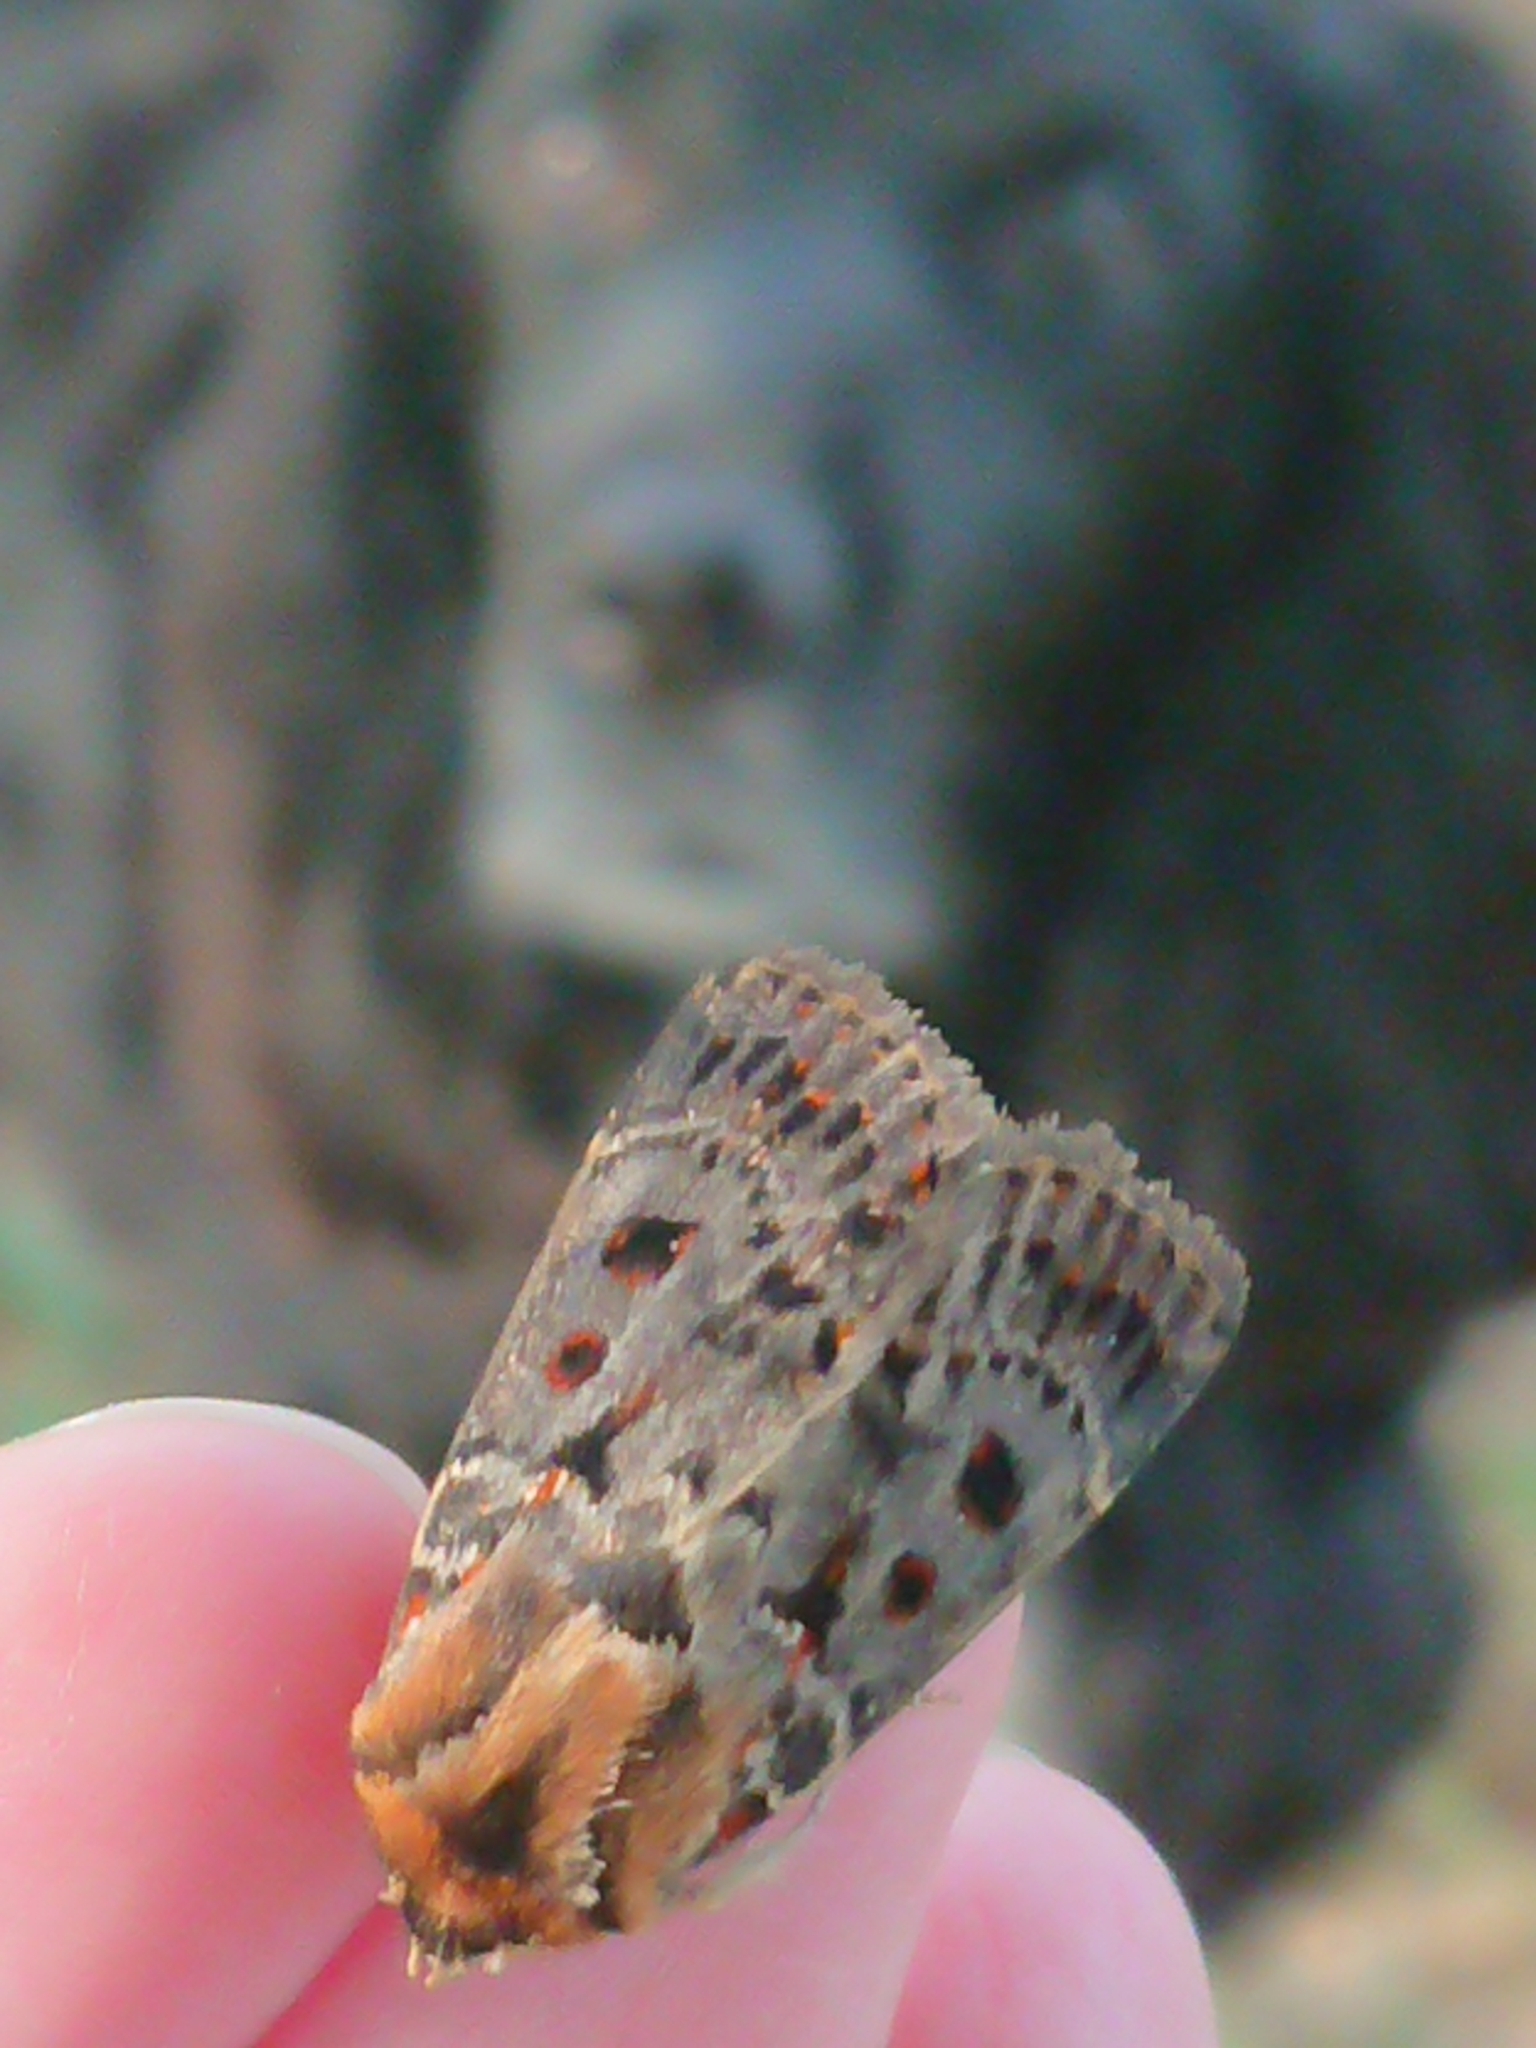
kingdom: Animalia
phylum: Arthropoda
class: Insecta
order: Lepidoptera
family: Noctuidae
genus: Proteuxoa
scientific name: Proteuxoa sanguinipuncta
